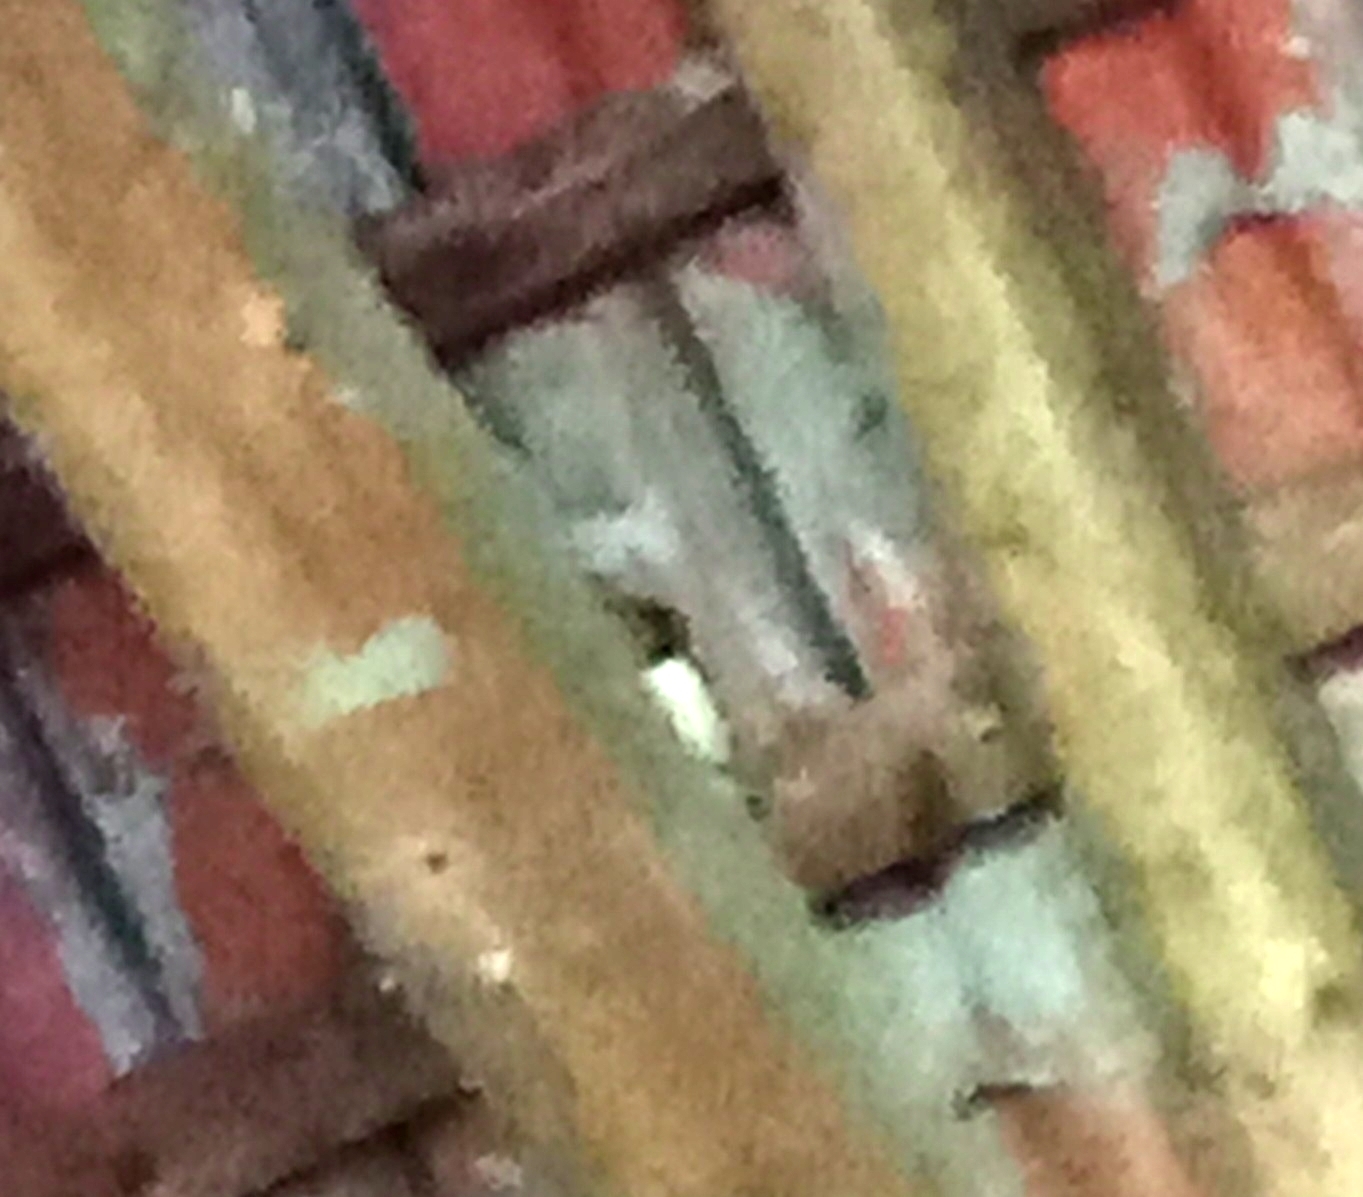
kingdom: Animalia
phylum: Chordata
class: Aves
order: Passeriformes
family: Hirundinidae
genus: Hirundo
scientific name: Hirundo rustica
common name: Barn swallow
